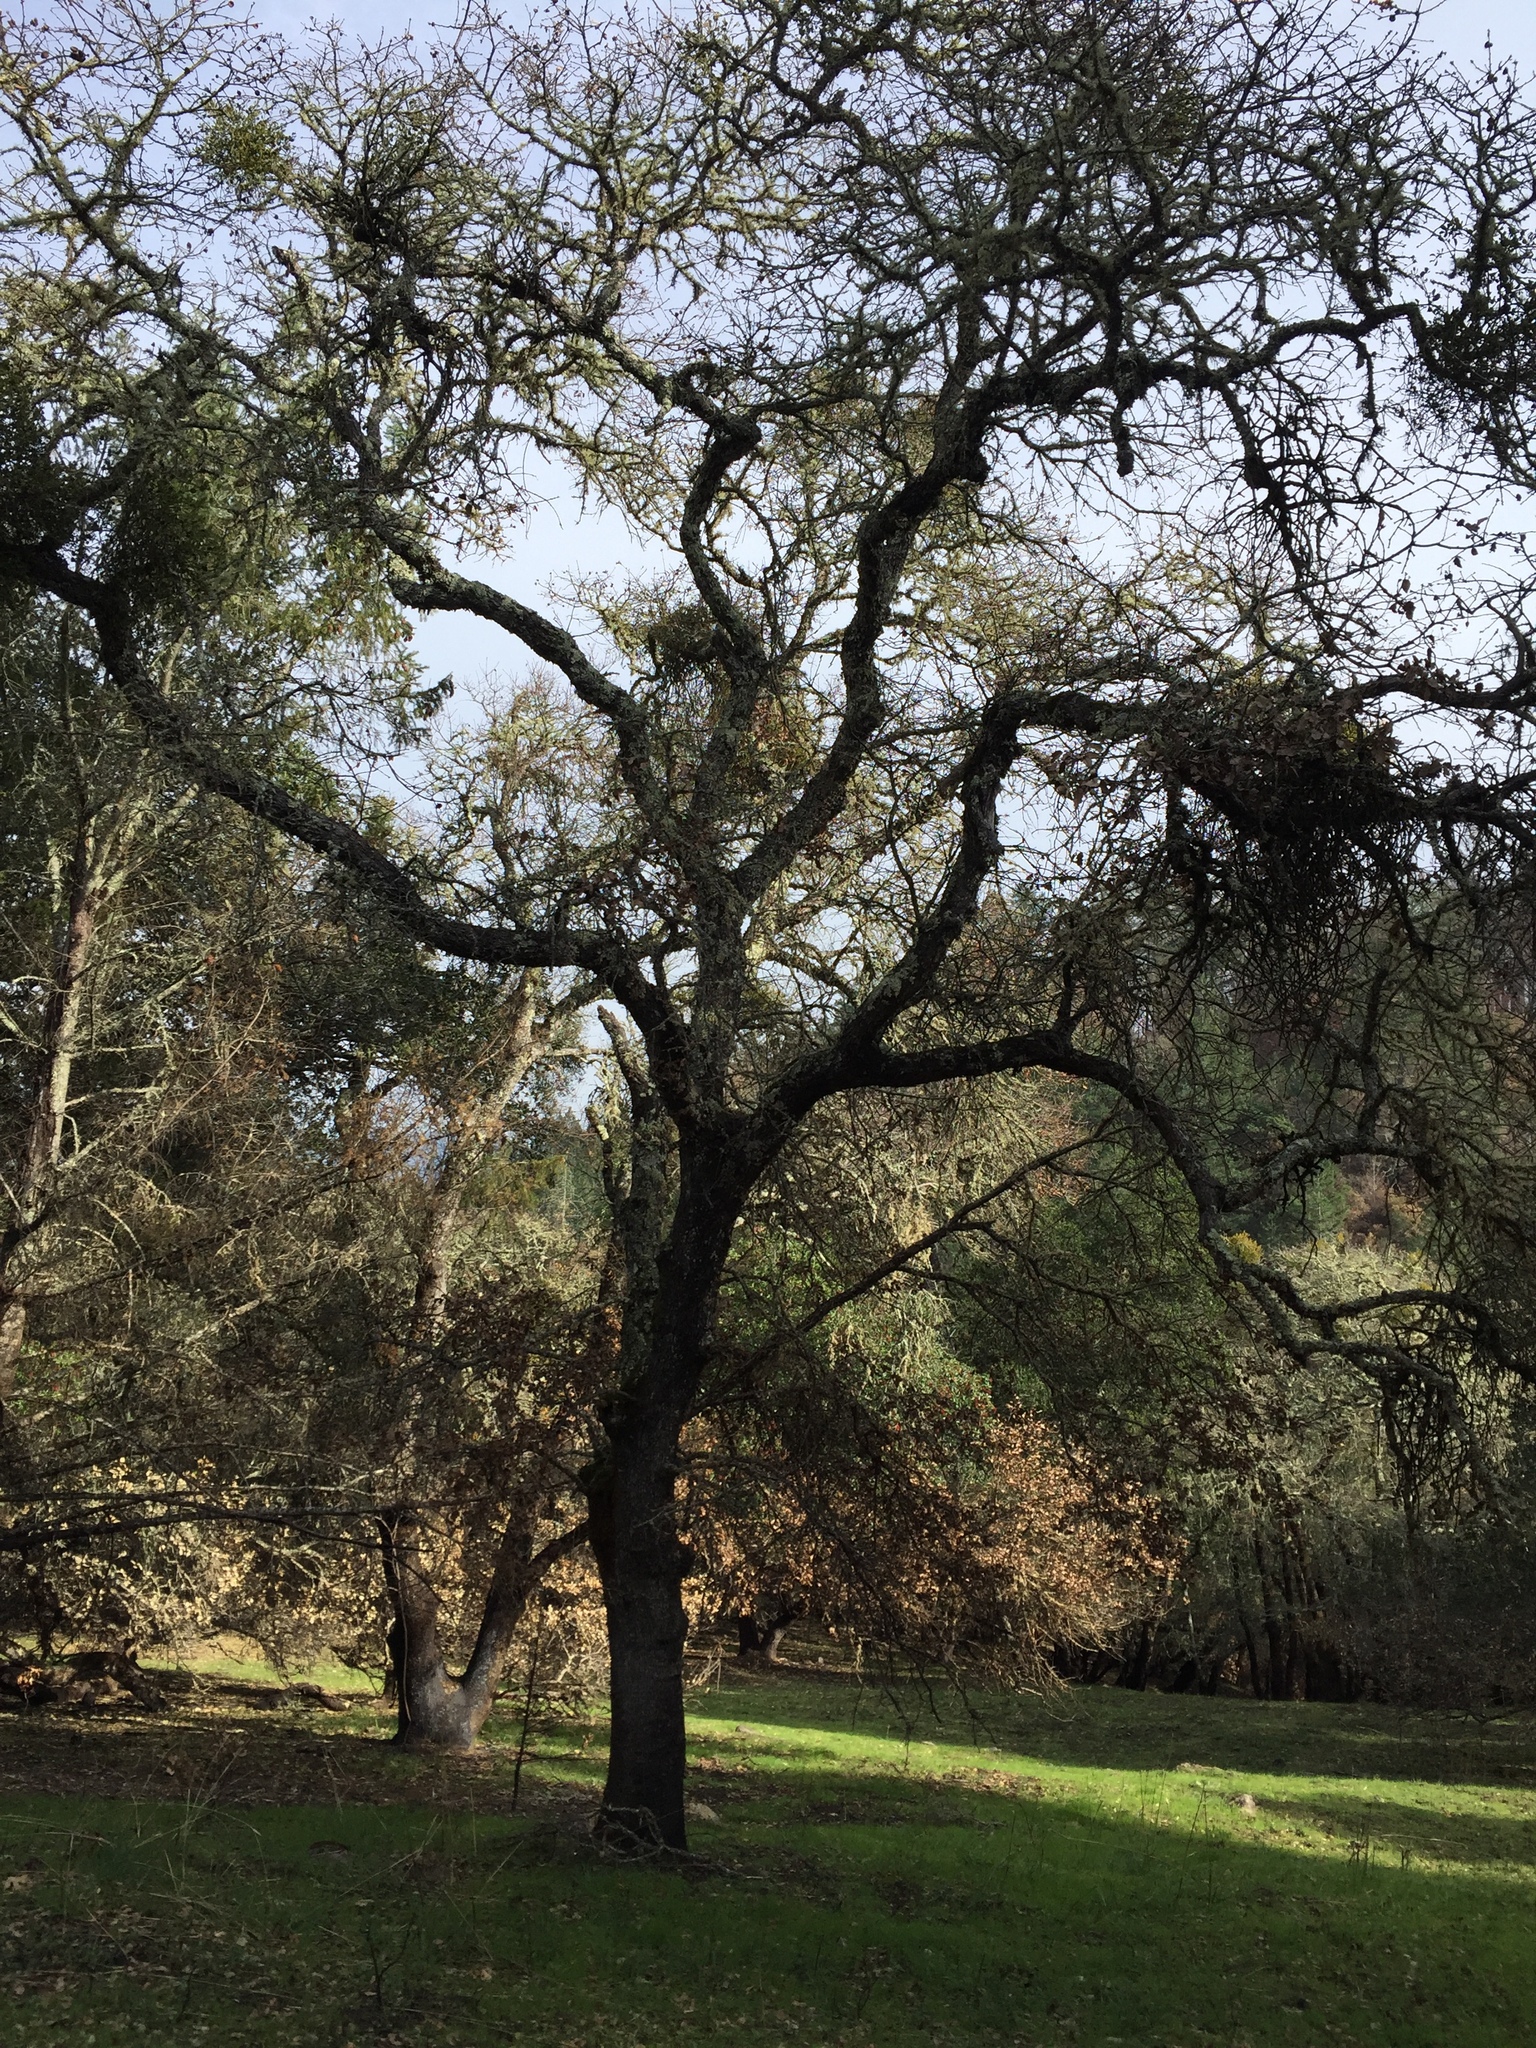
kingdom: Plantae
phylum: Tracheophyta
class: Magnoliopsida
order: Fagales
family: Fagaceae
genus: Quercus
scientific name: Quercus douglasii
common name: Blue oak
